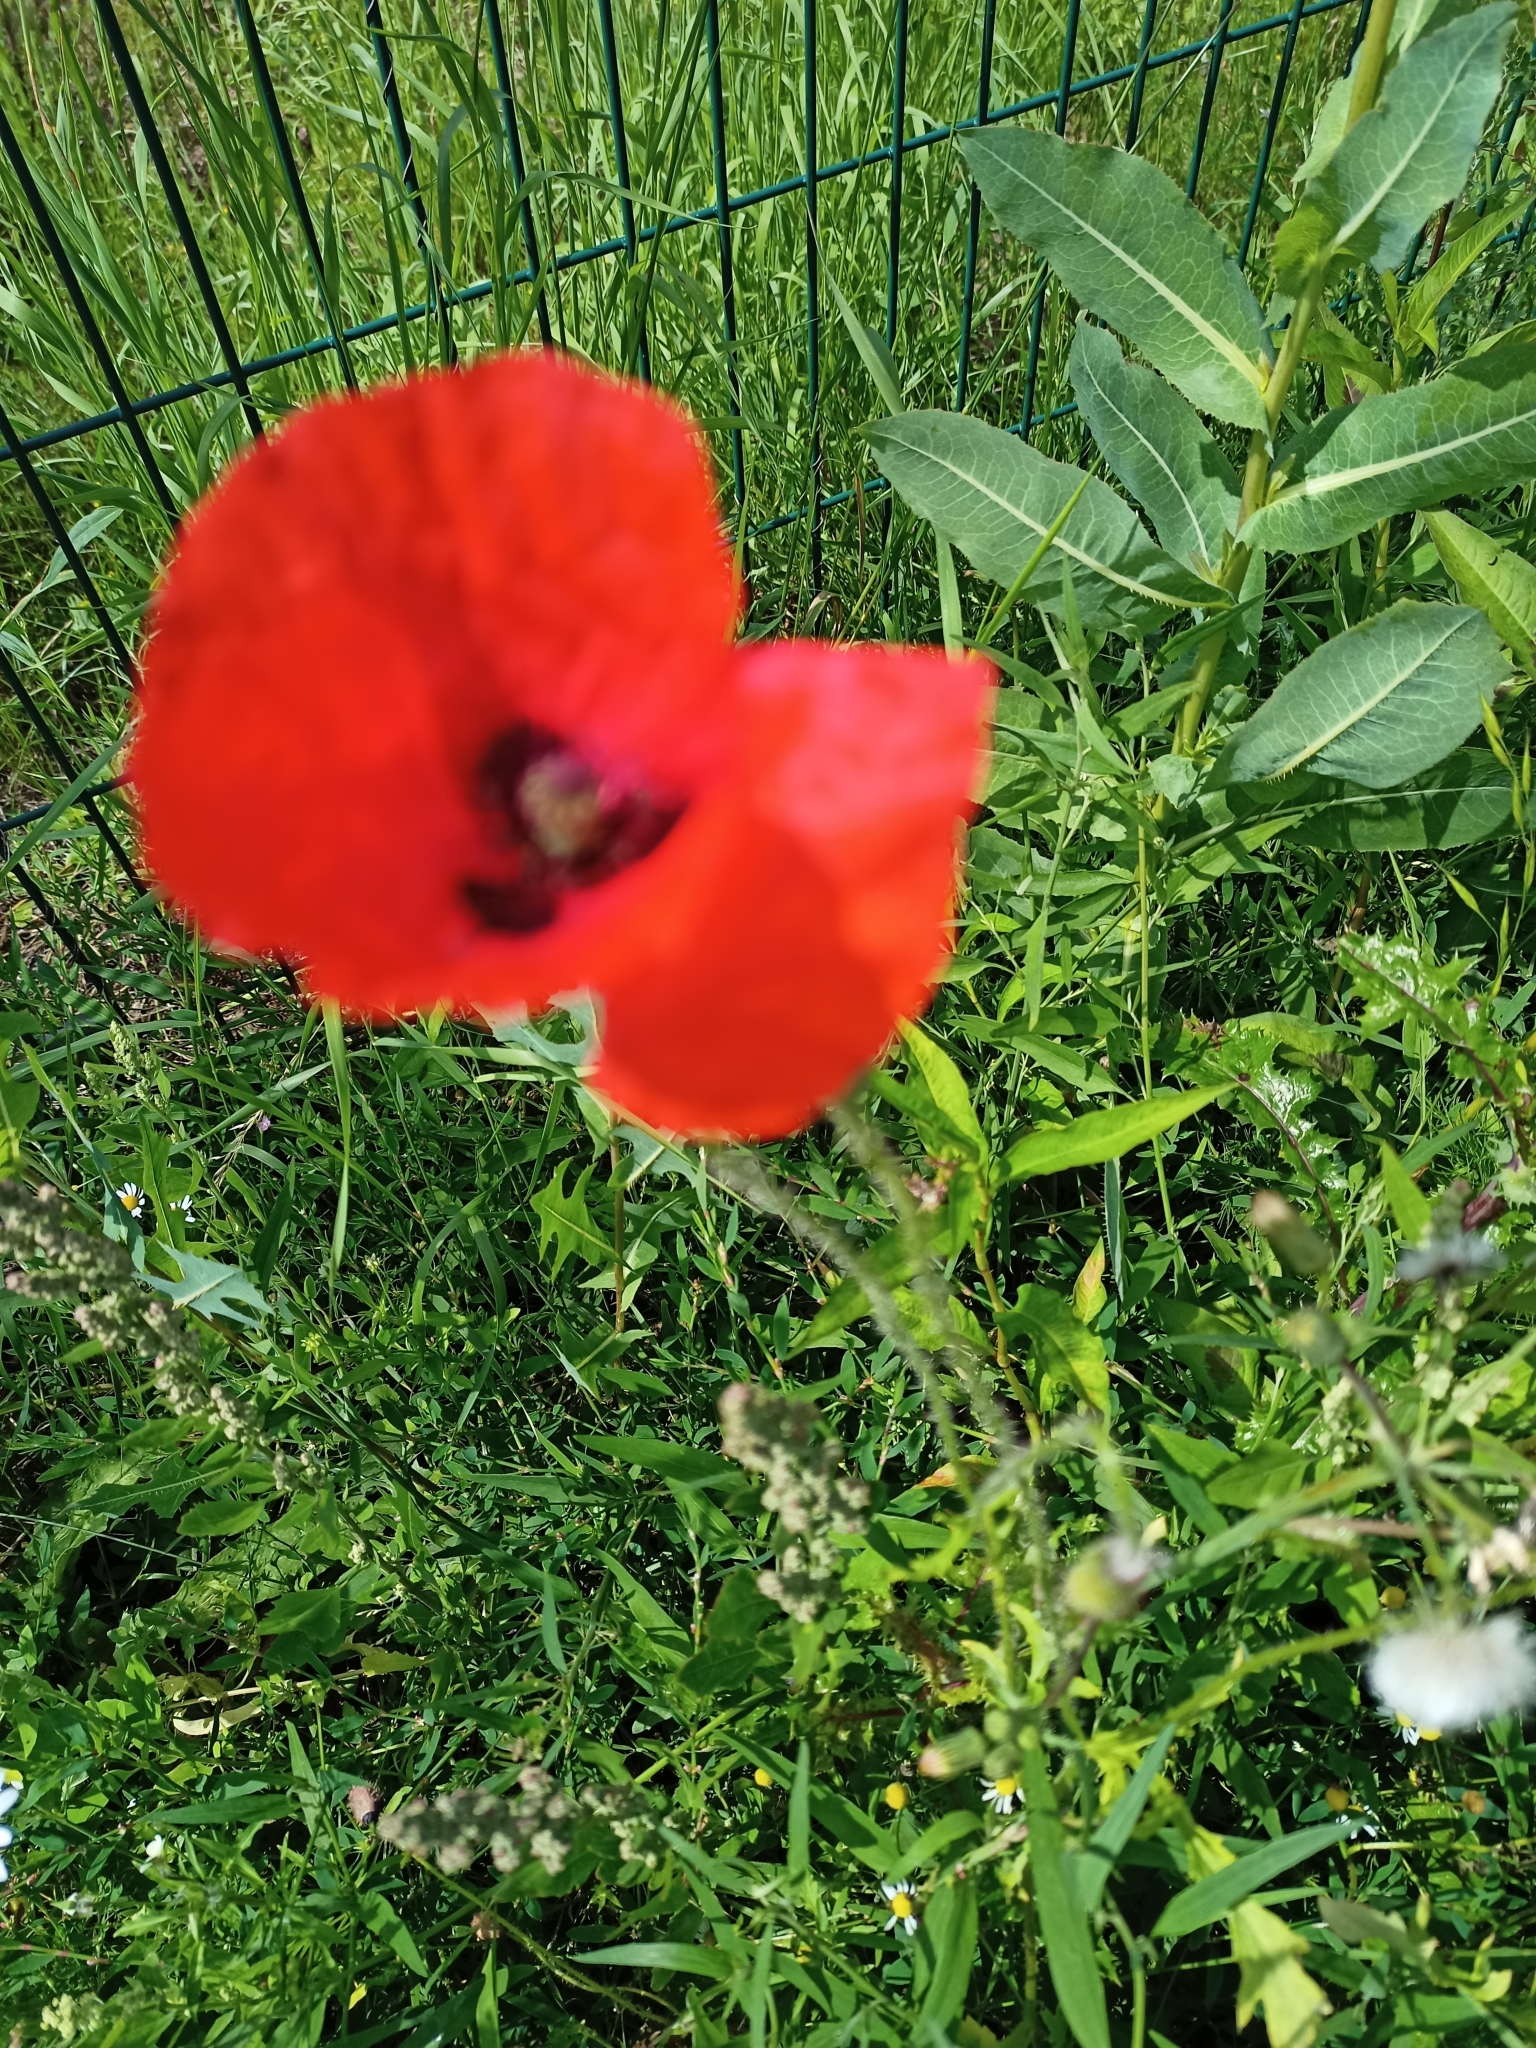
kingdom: Plantae
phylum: Tracheophyta
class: Magnoliopsida
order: Ranunculales
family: Papaveraceae
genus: Papaver
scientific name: Papaver rhoeas
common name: Corn poppy
